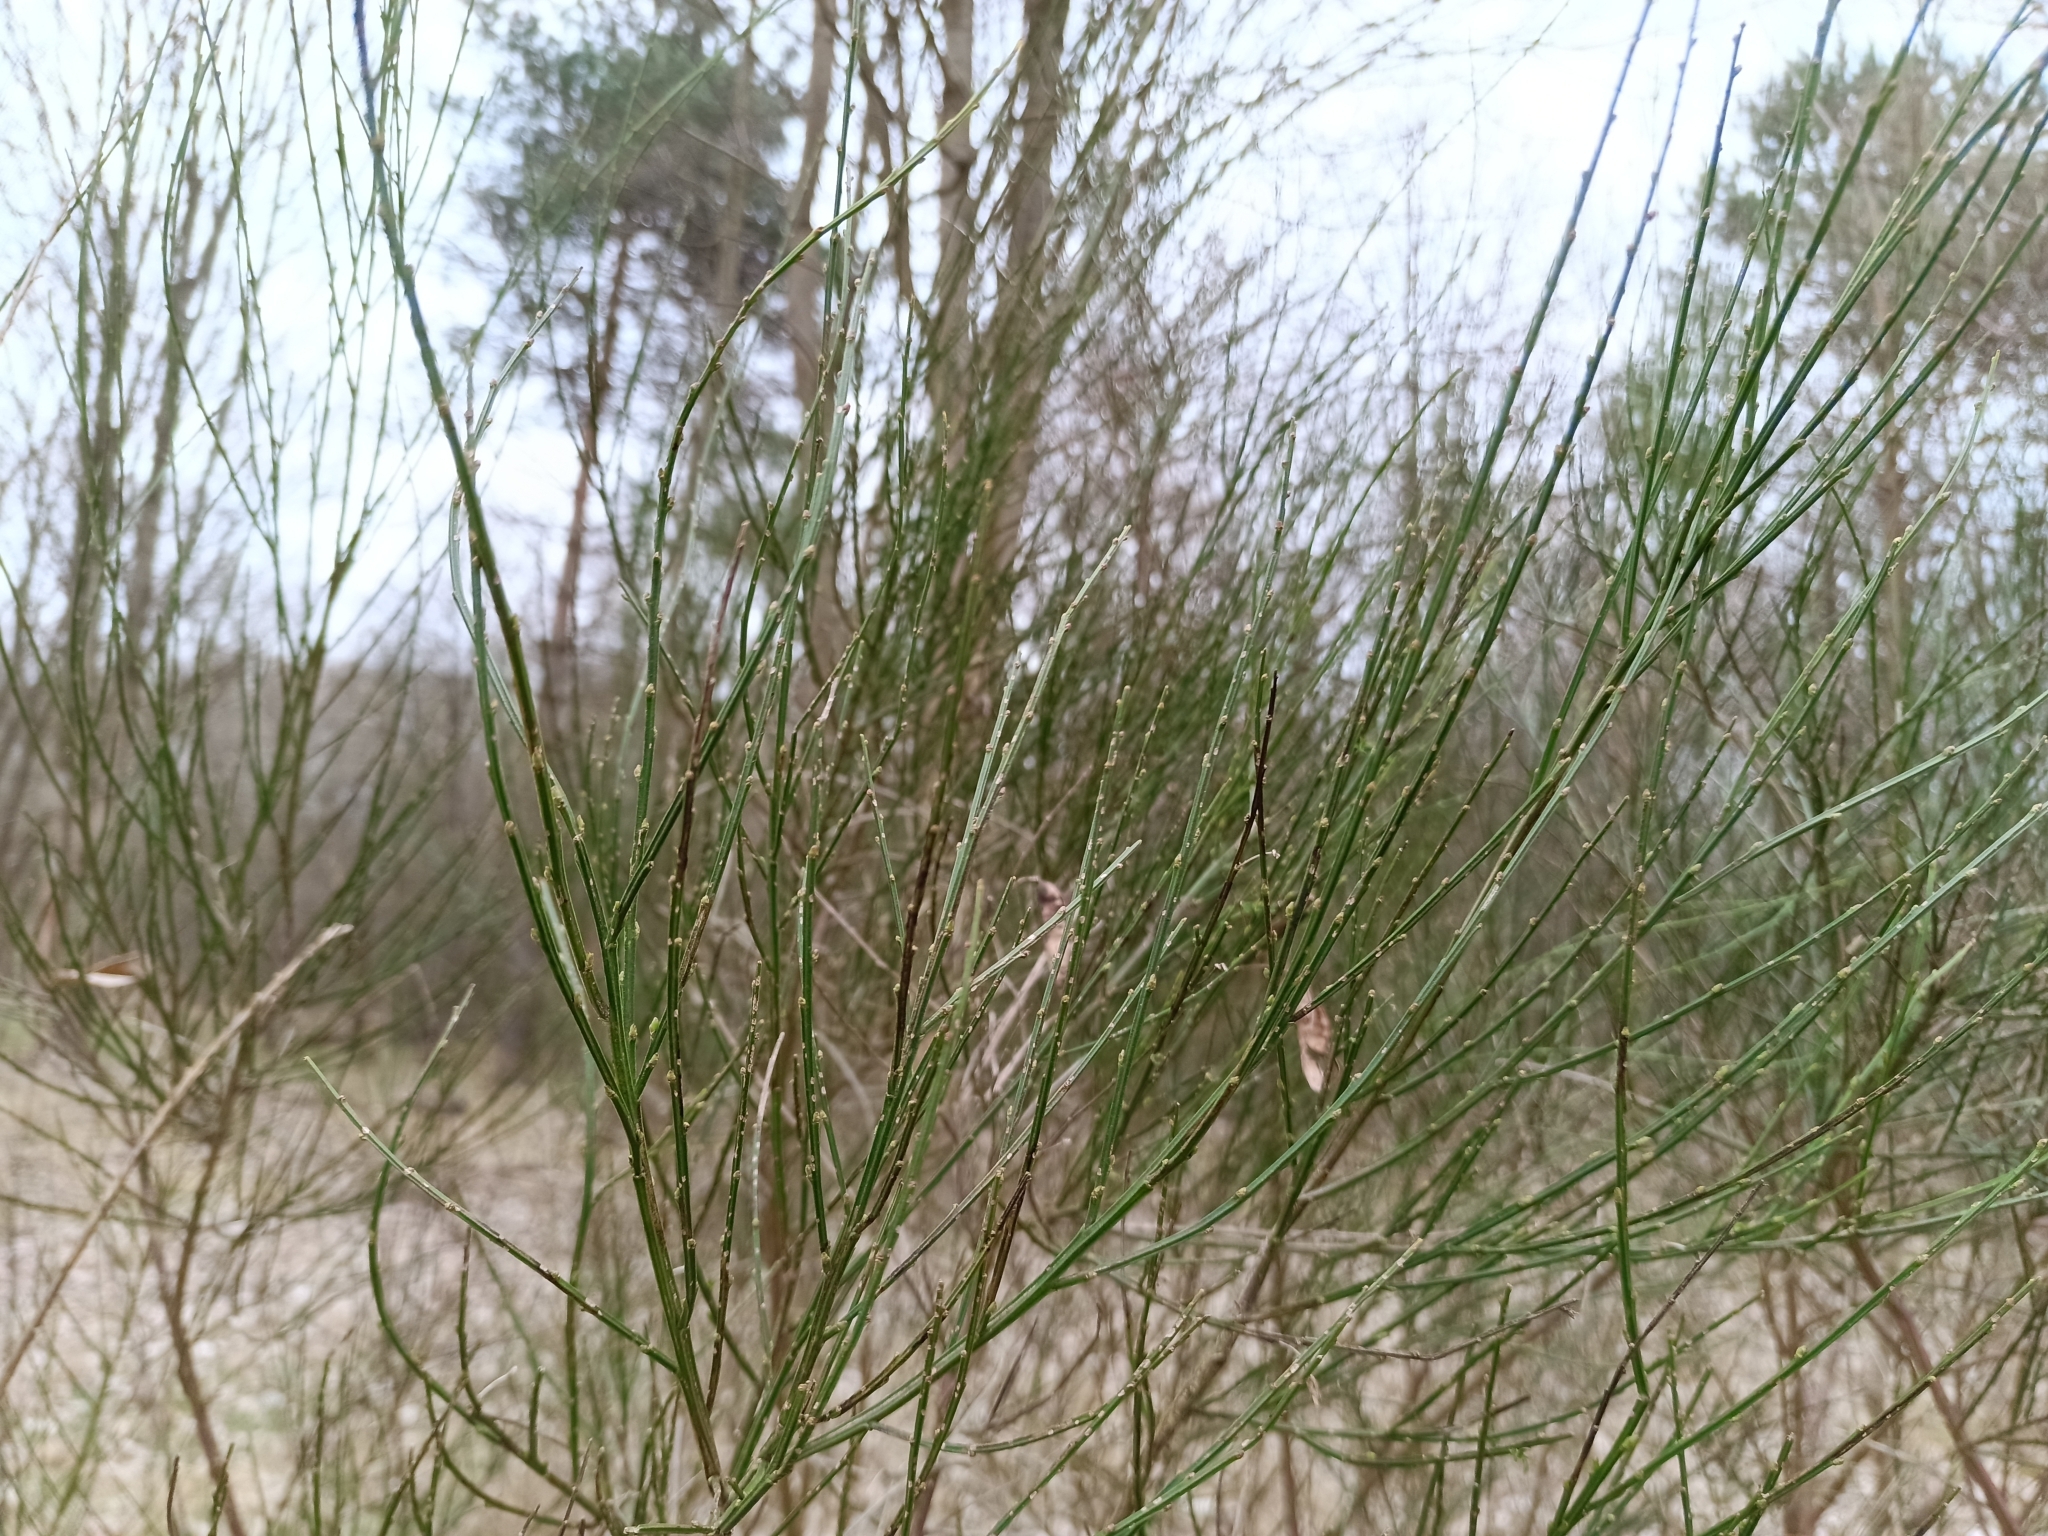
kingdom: Plantae
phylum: Tracheophyta
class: Magnoliopsida
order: Fabales
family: Fabaceae
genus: Cytisus
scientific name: Cytisus scoparius
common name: Scotch broom
